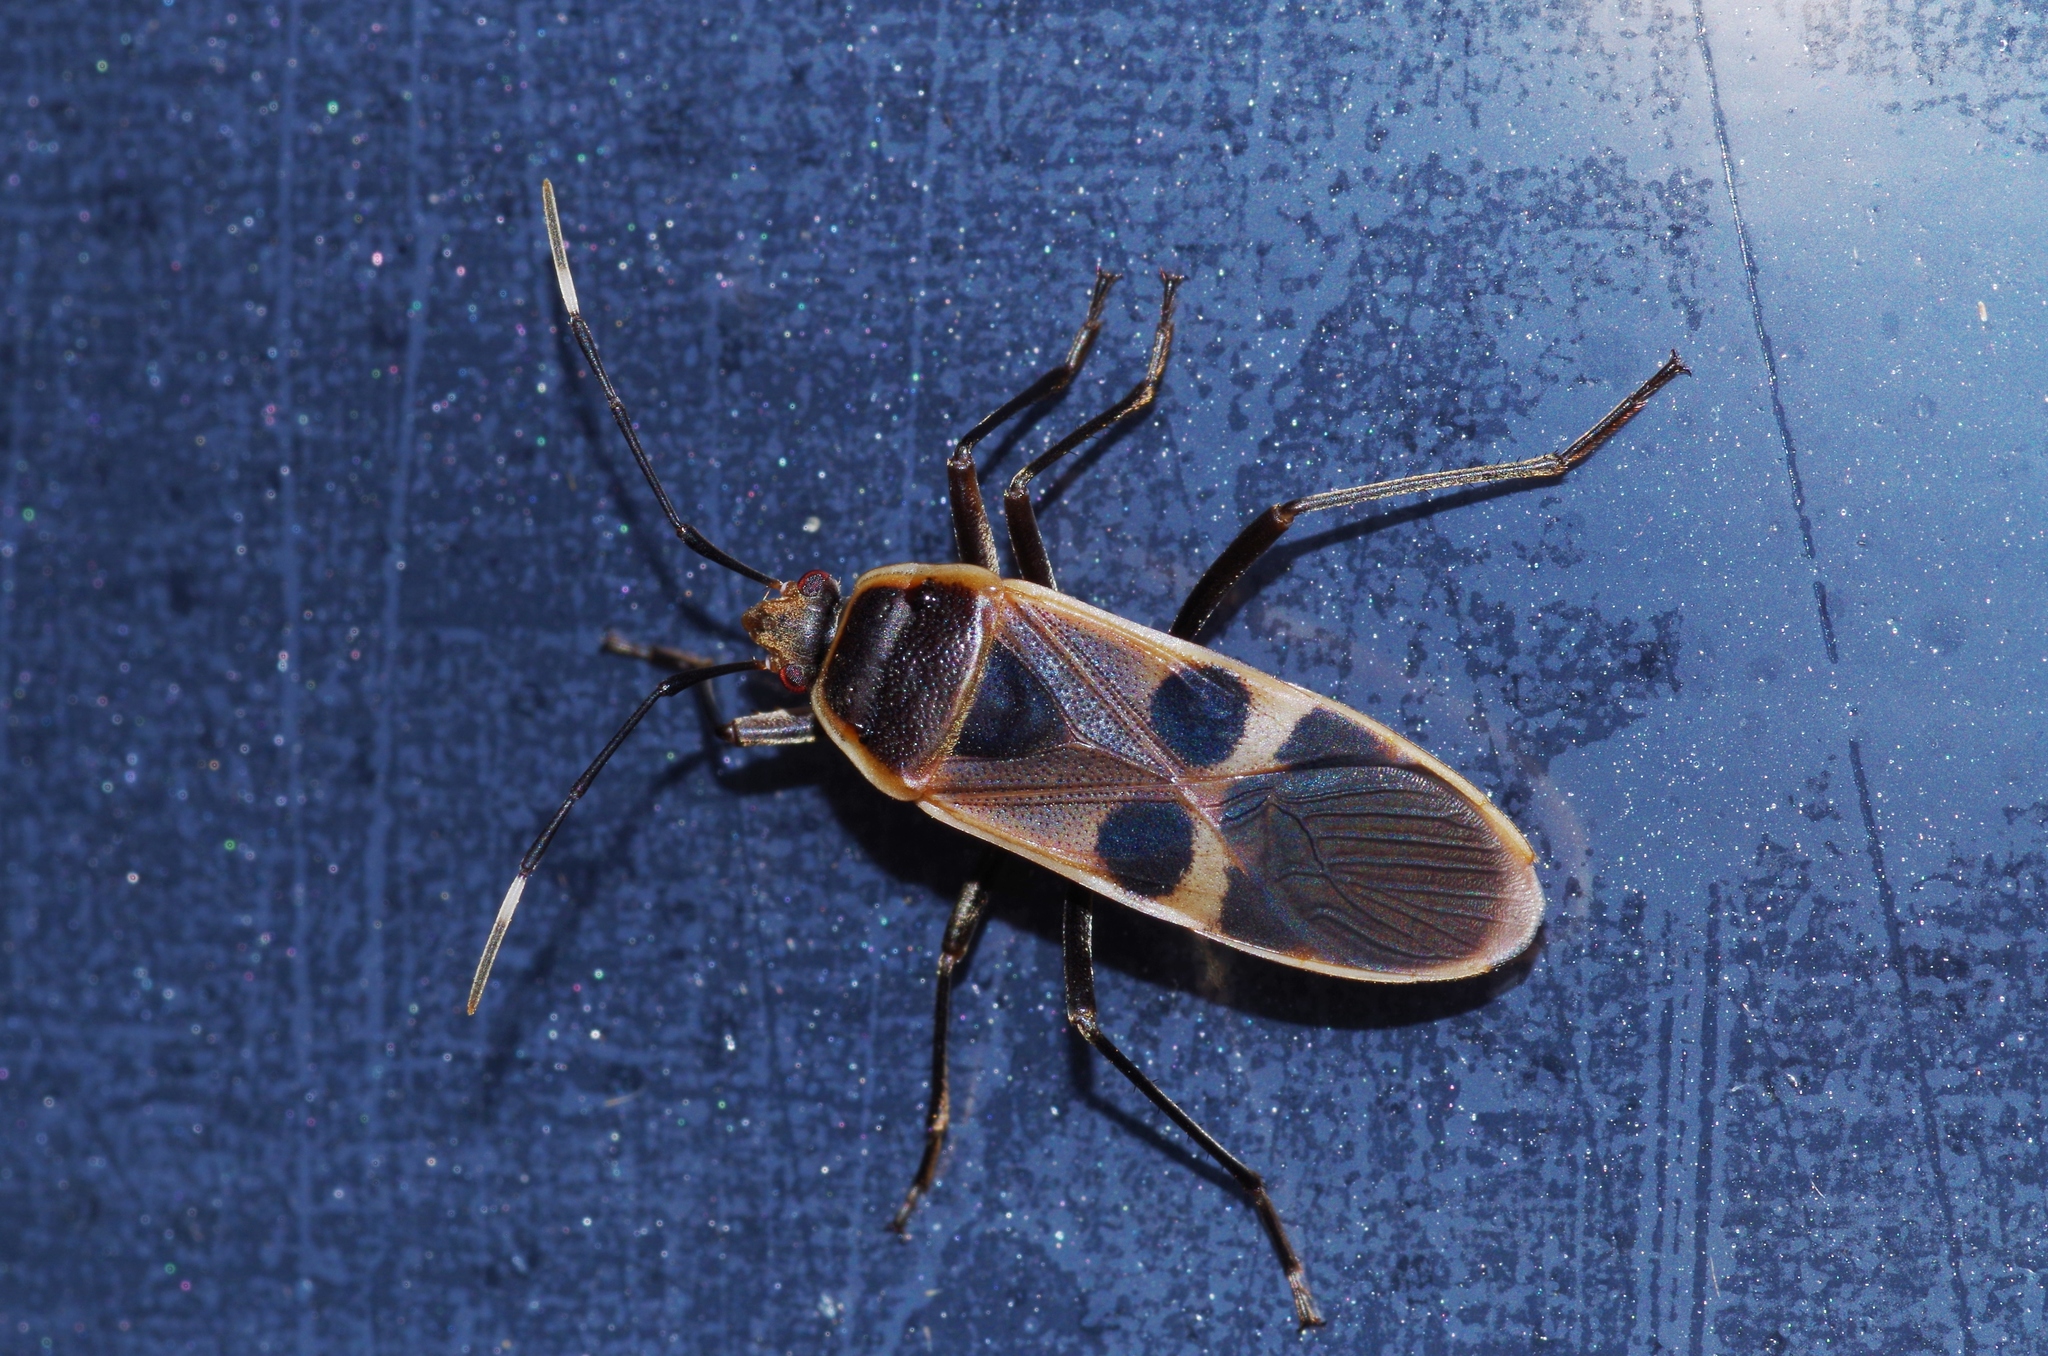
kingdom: Animalia
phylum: Arthropoda
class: Insecta
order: Hemiptera
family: Largidae
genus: Physopelta
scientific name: Physopelta gutta
